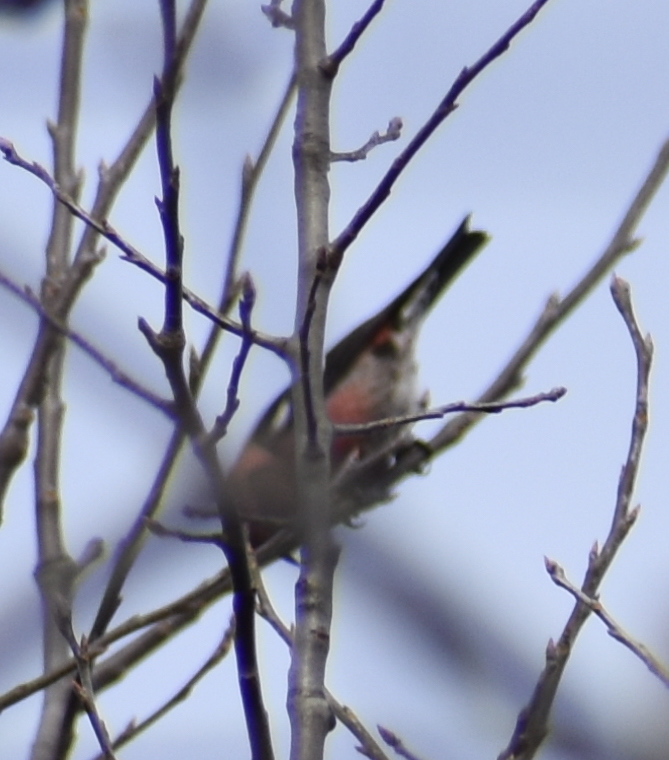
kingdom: Animalia
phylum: Chordata
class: Aves
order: Passeriformes
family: Fringillidae
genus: Loxia
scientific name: Loxia leucoptera
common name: Two-barred crossbill
